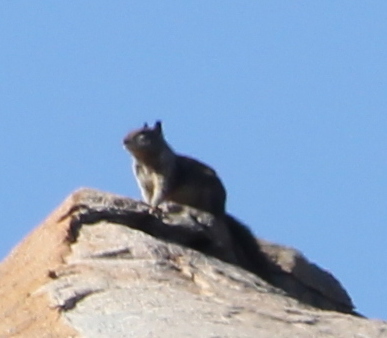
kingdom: Animalia
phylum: Chordata
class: Mammalia
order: Rodentia
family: Sciuridae
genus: Otospermophilus
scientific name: Otospermophilus beecheyi
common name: California ground squirrel
